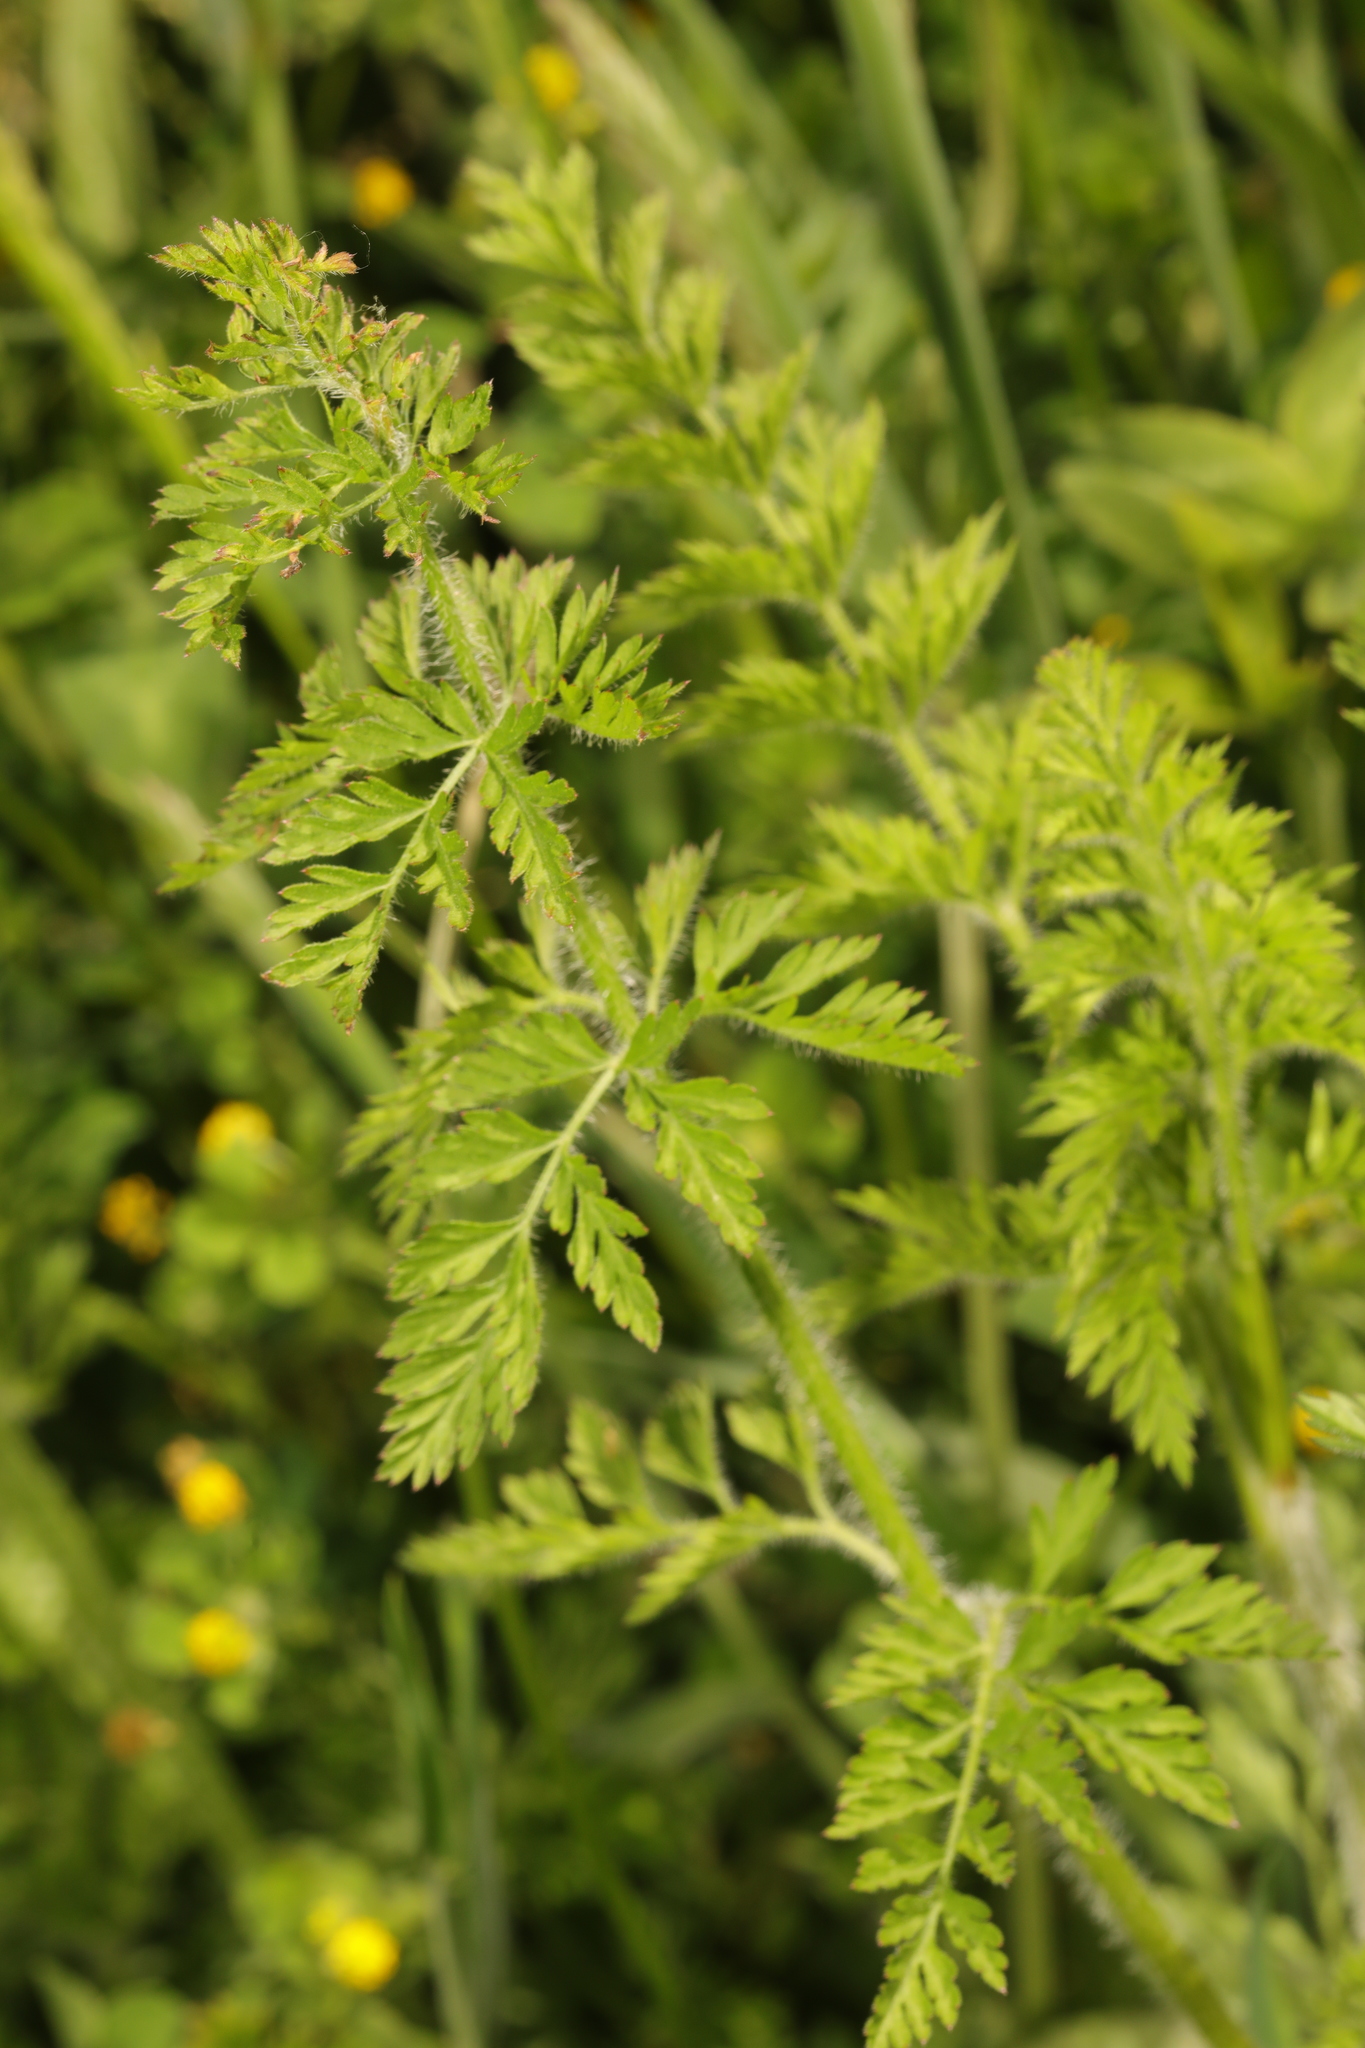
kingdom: Plantae
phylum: Tracheophyta
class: Magnoliopsida
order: Apiales
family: Apiaceae
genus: Daucus
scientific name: Daucus carota
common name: Wild carrot
